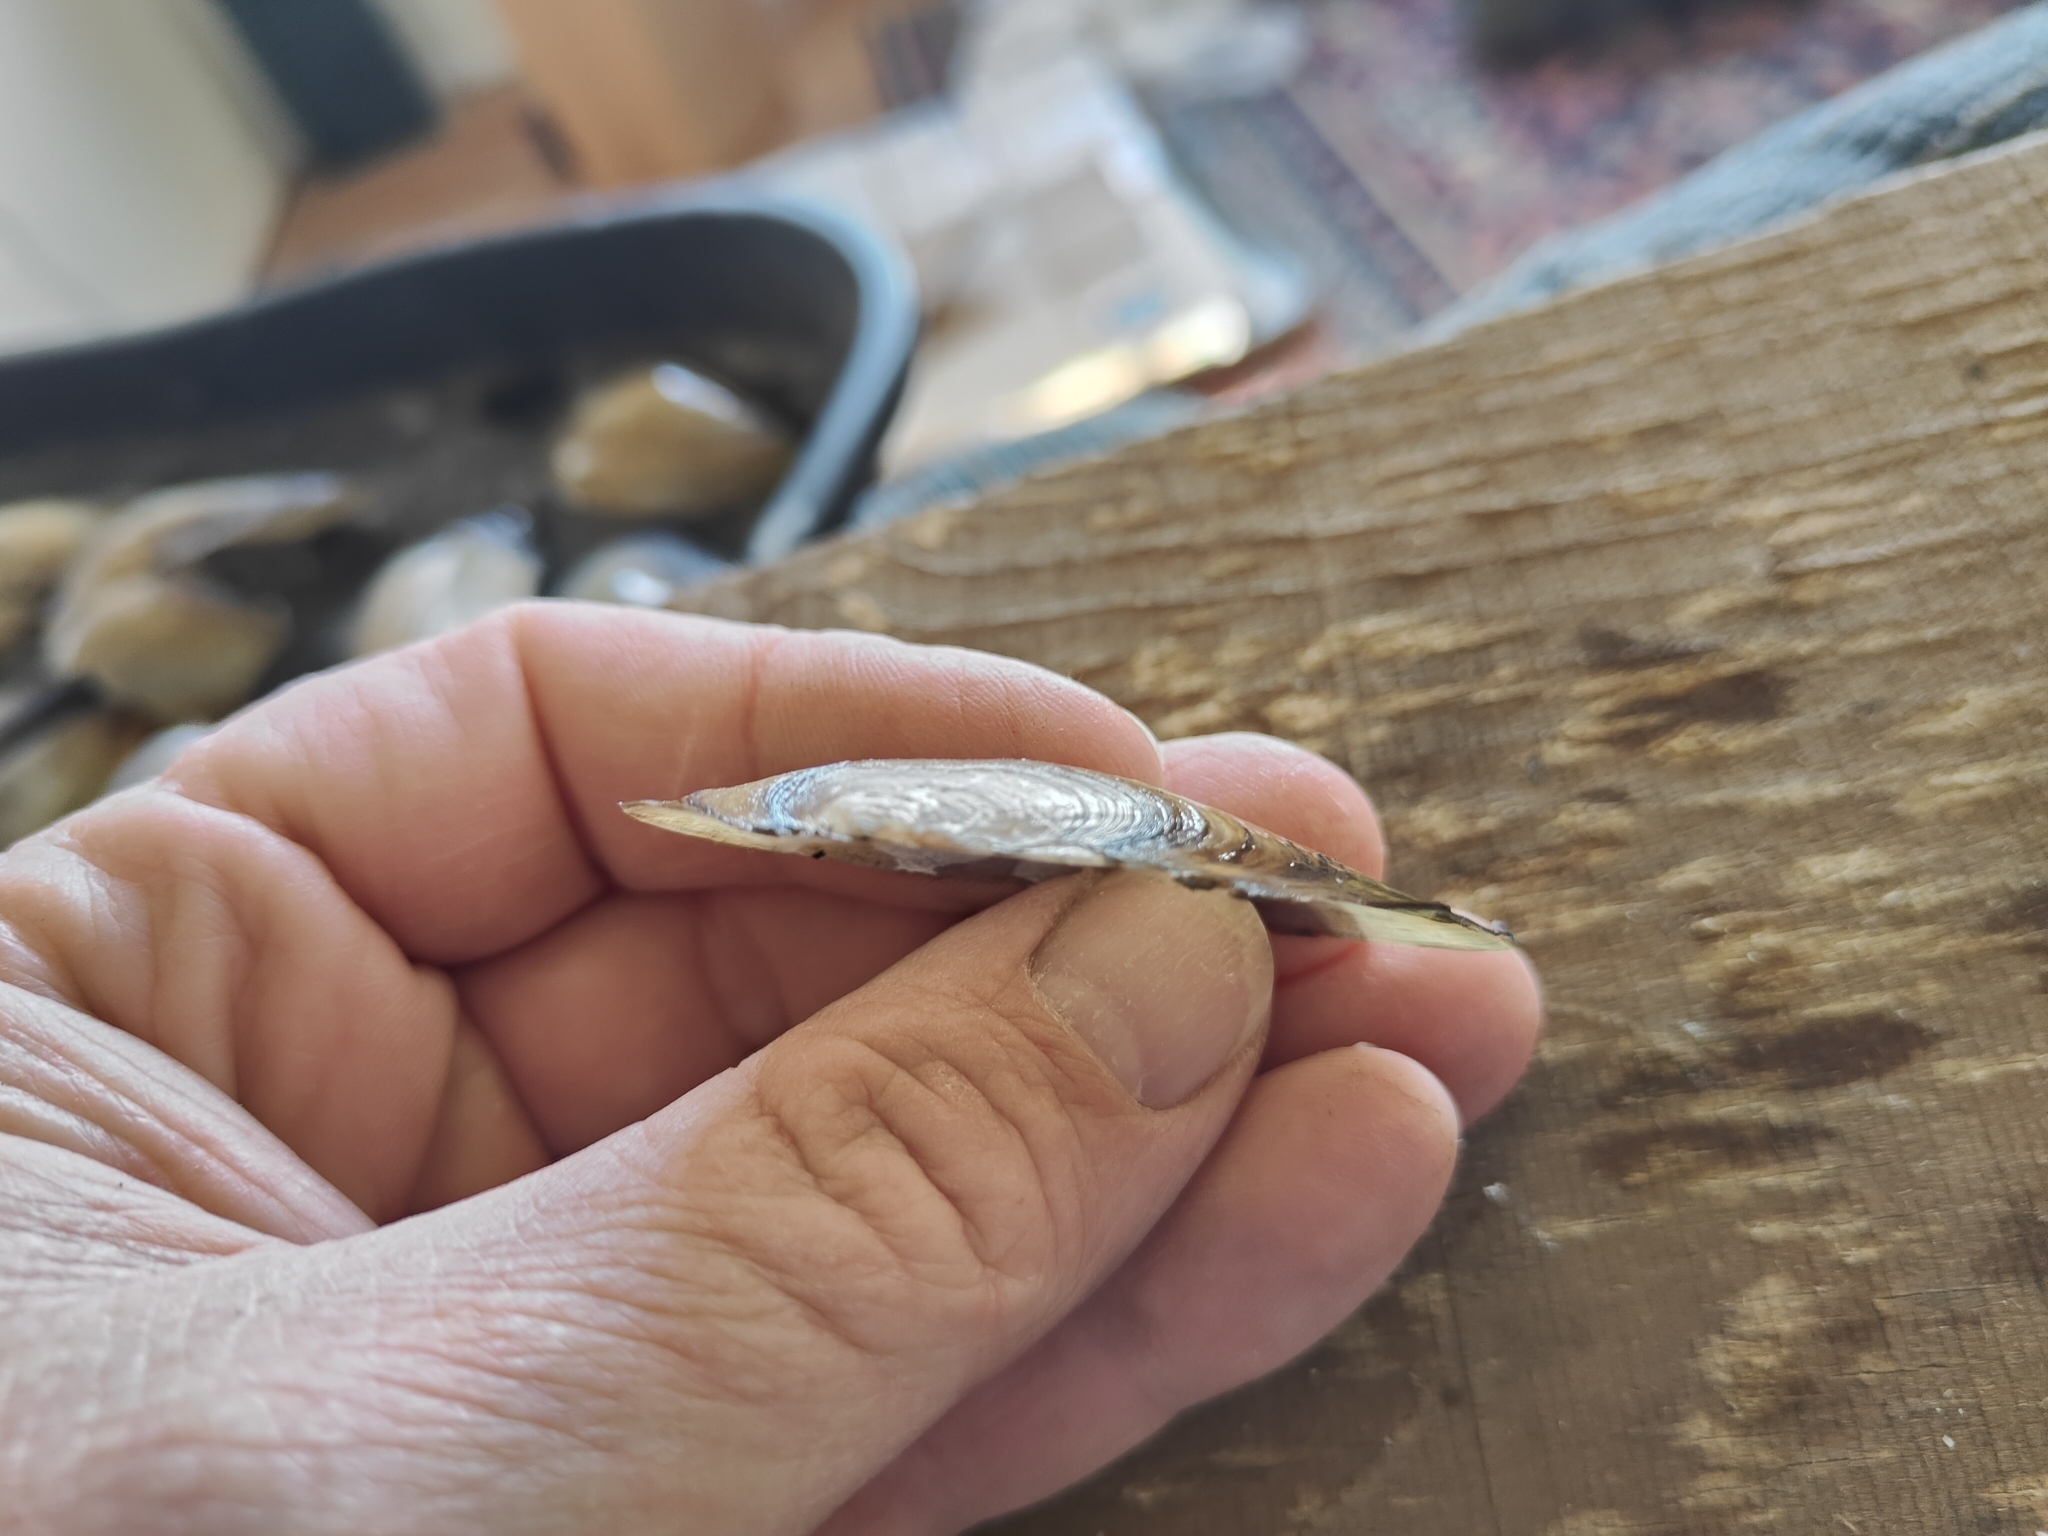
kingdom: Animalia
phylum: Mollusca
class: Bivalvia
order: Unionida
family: Unionidae
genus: Utterbackia
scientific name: Utterbackia imbecillis
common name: Paper pondshell
